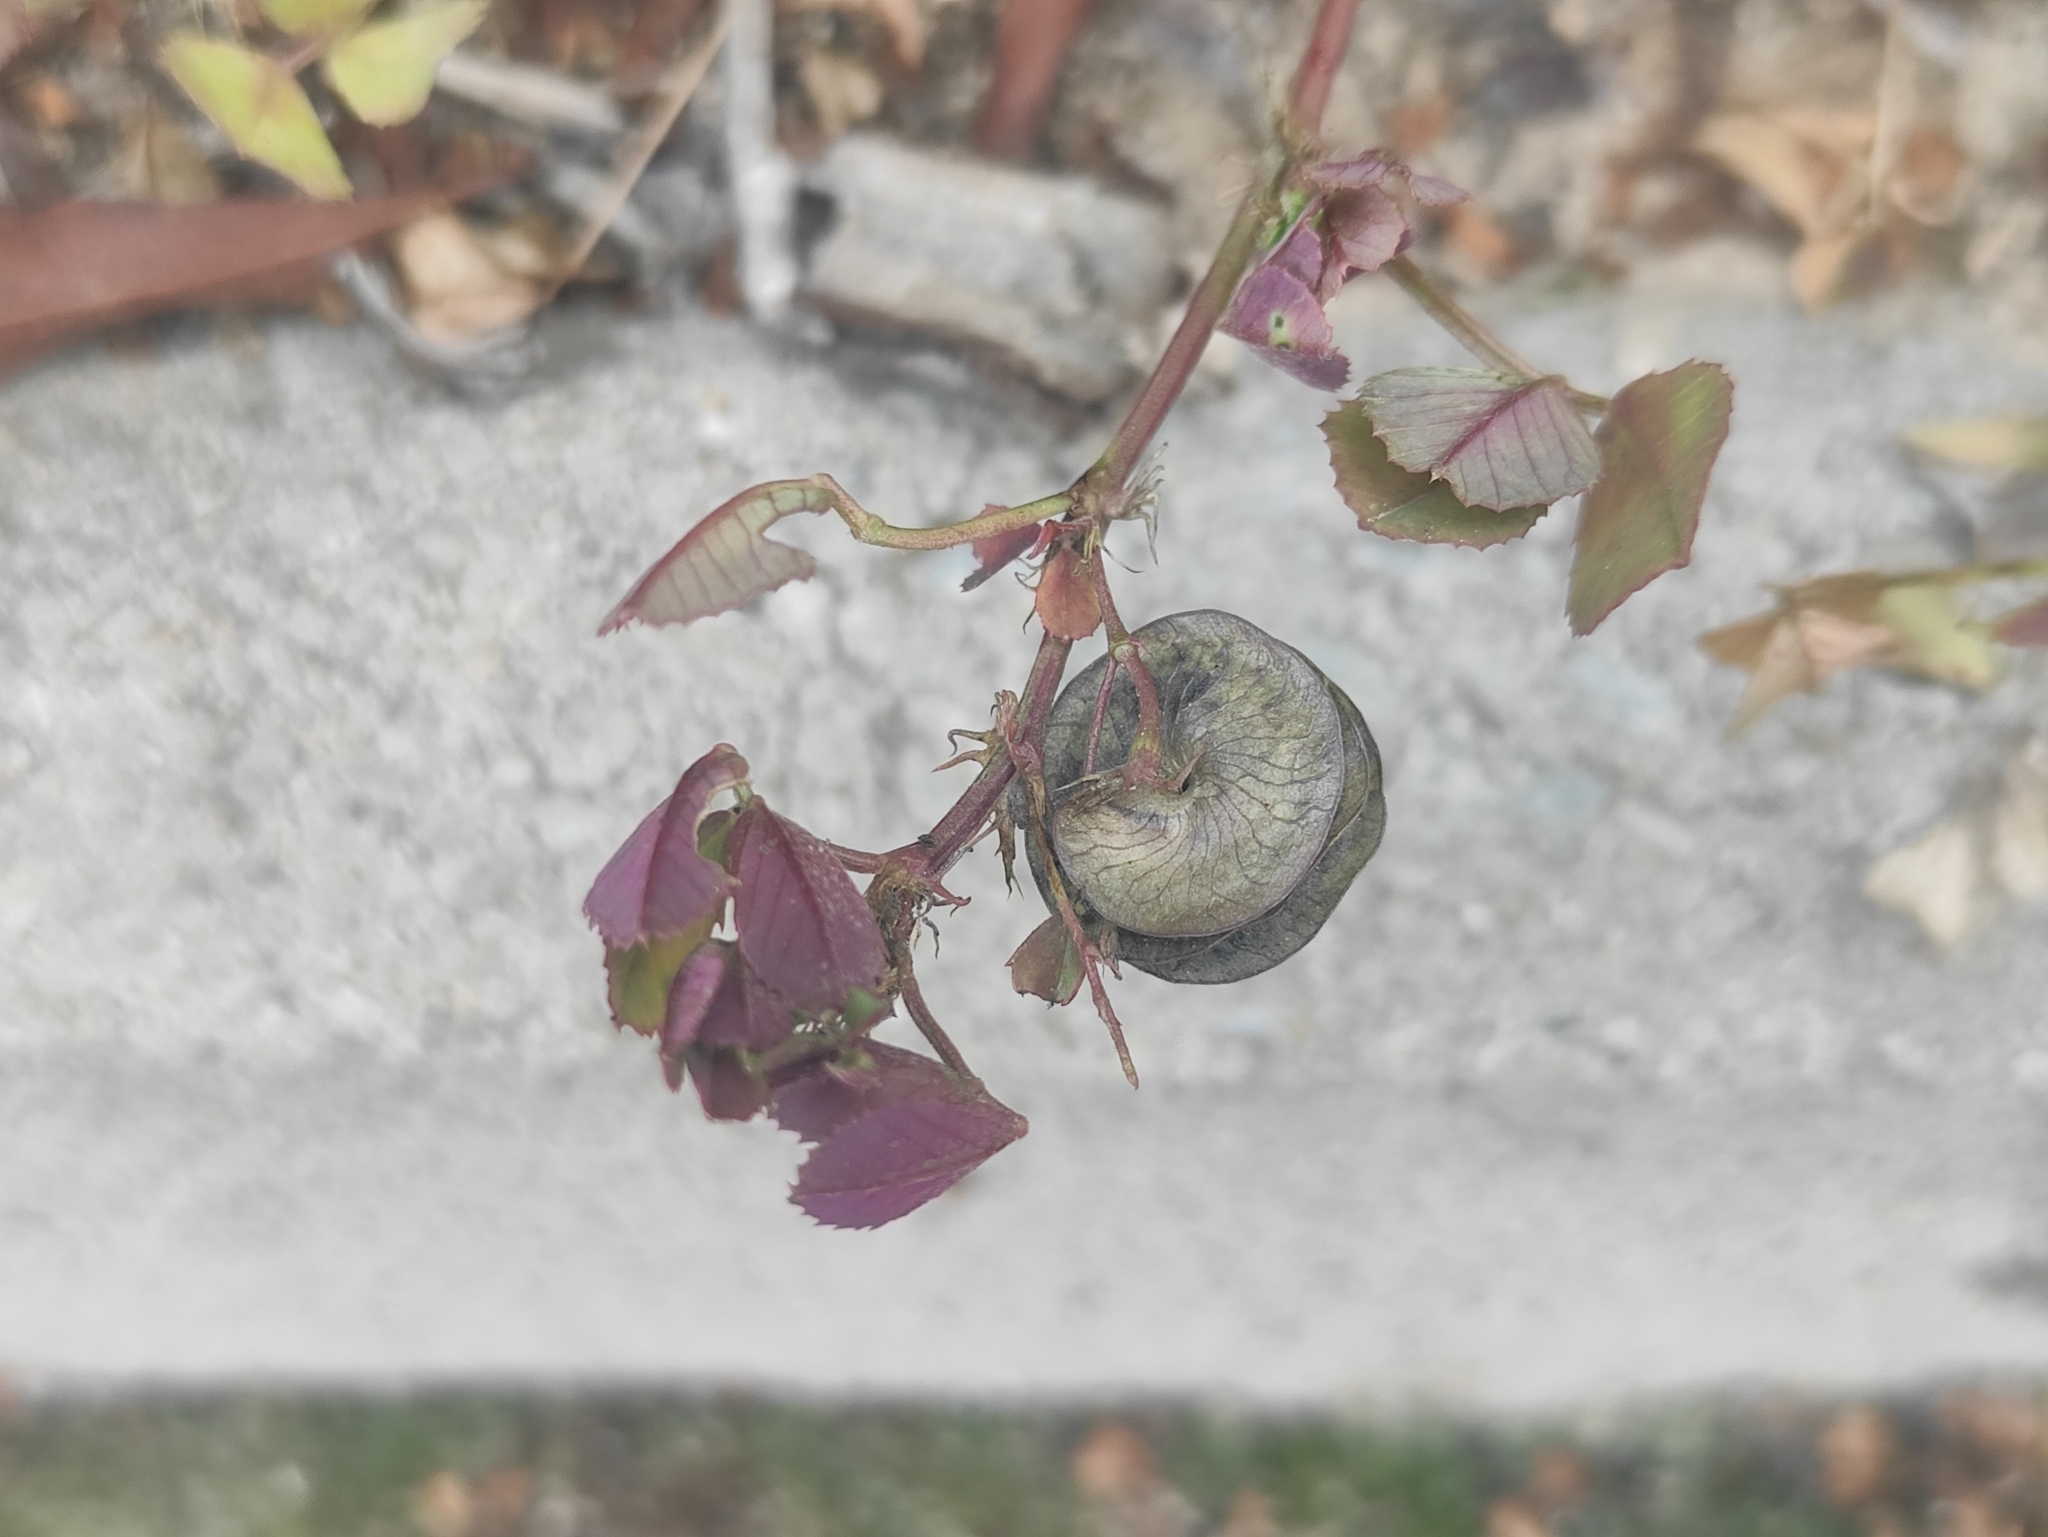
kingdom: Plantae
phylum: Tracheophyta
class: Magnoliopsida
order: Fabales
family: Fabaceae
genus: Medicago
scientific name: Medicago orbicularis
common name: Button medick
